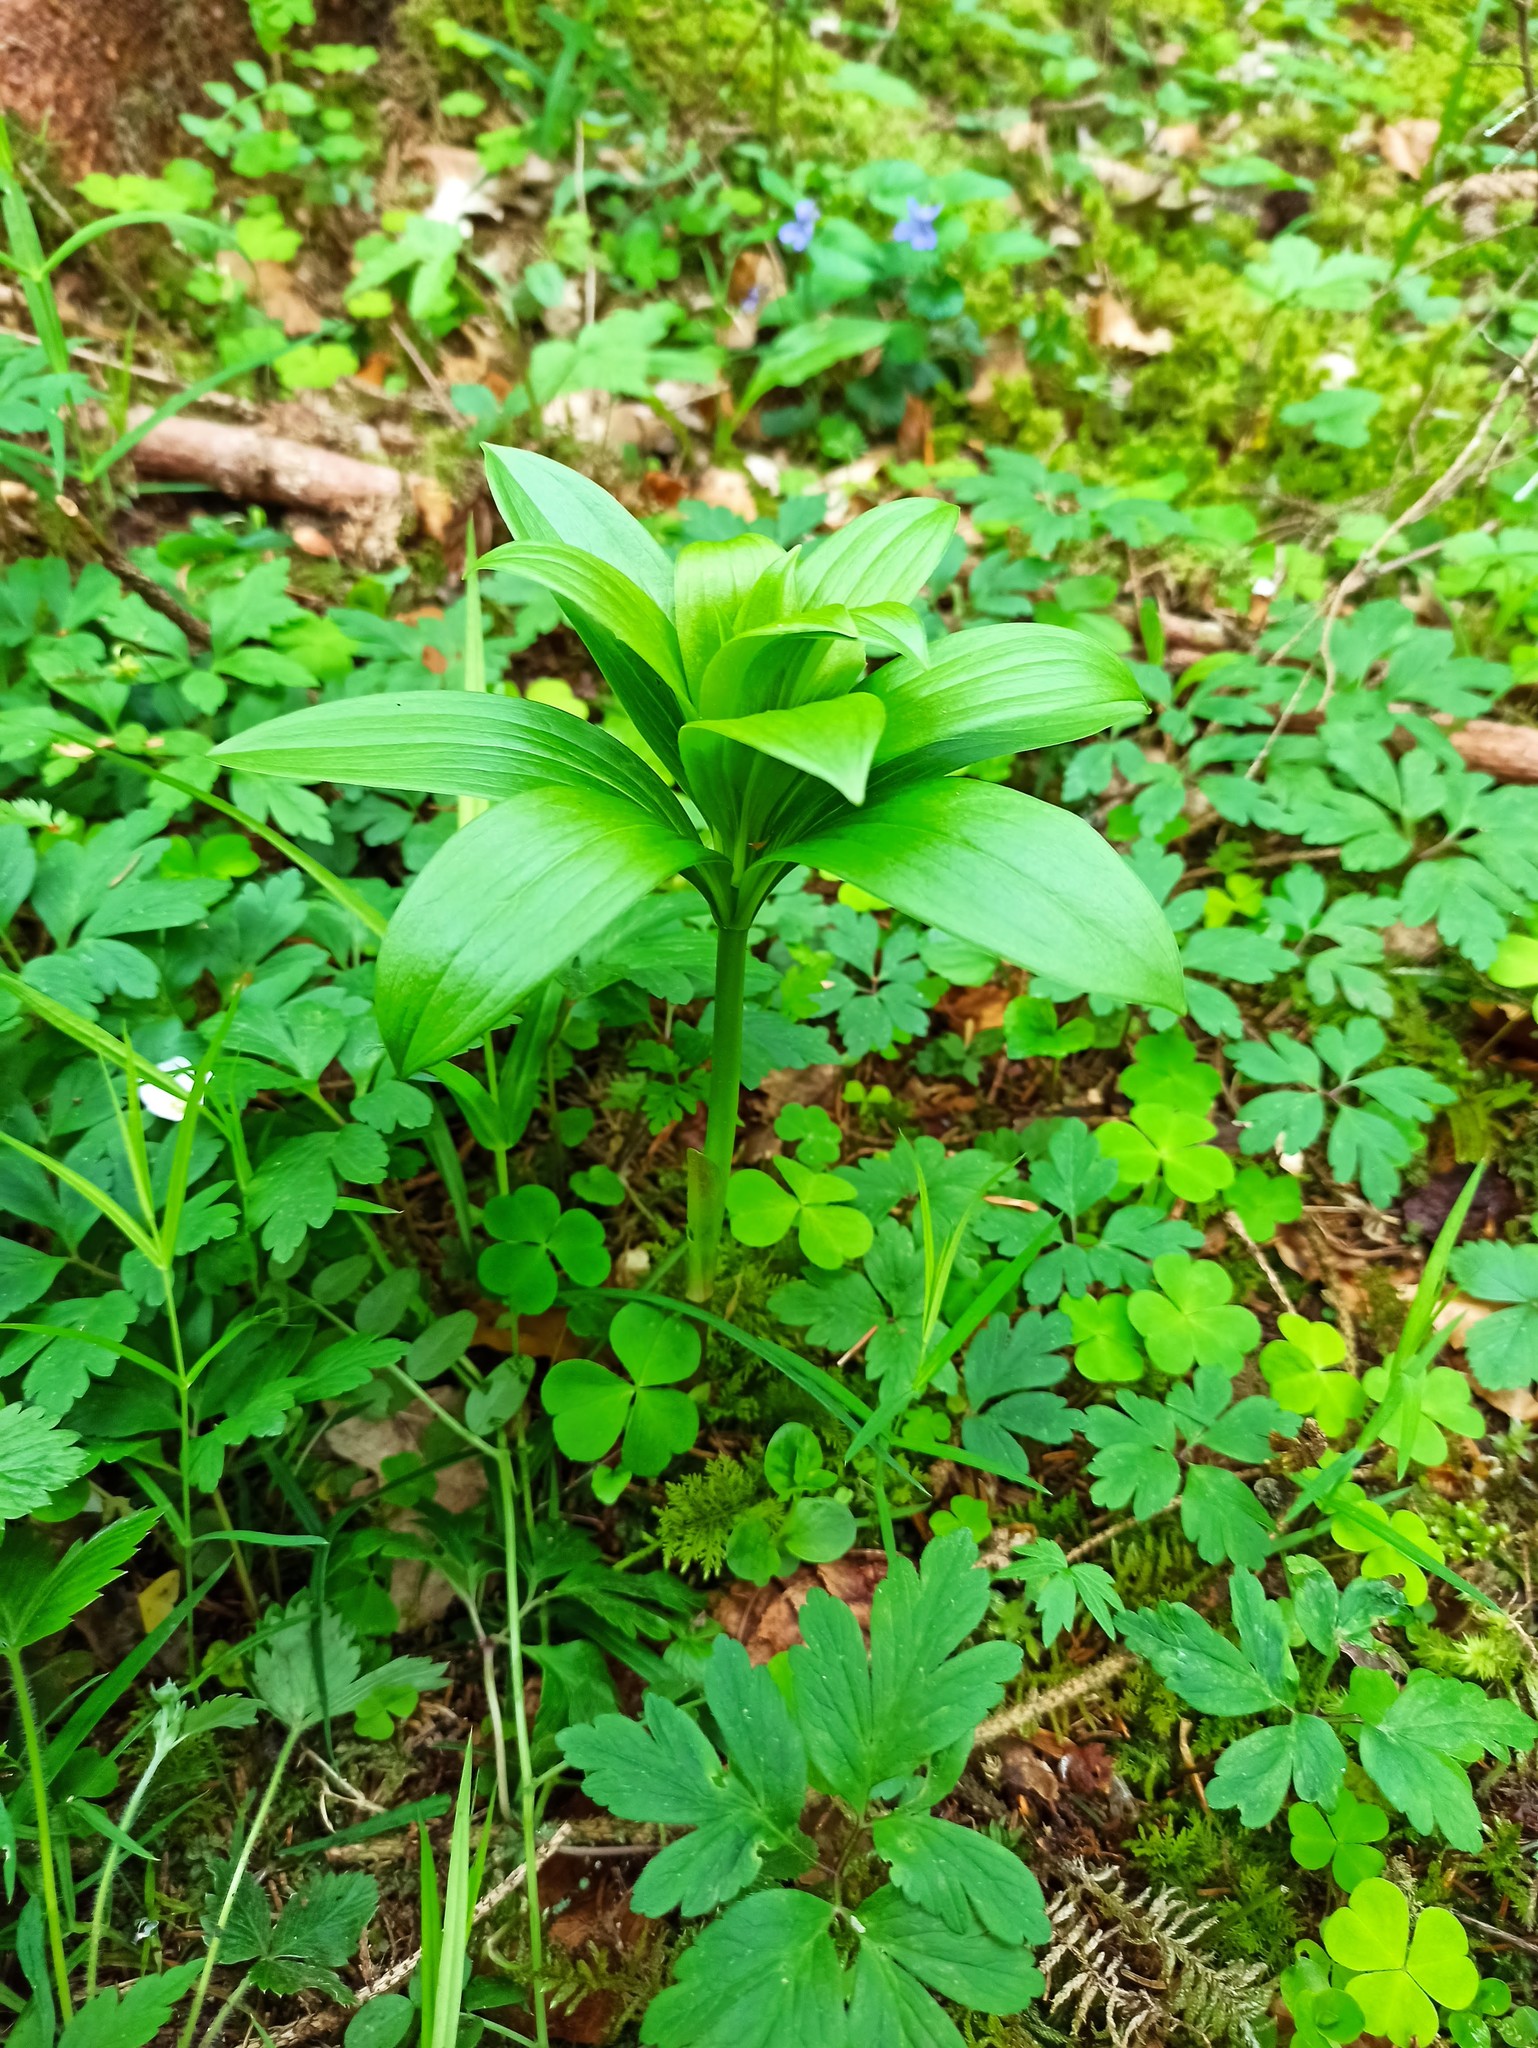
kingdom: Plantae
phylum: Tracheophyta
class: Liliopsida
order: Liliales
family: Liliaceae
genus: Lilium
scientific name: Lilium martagon
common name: Martagon lily
